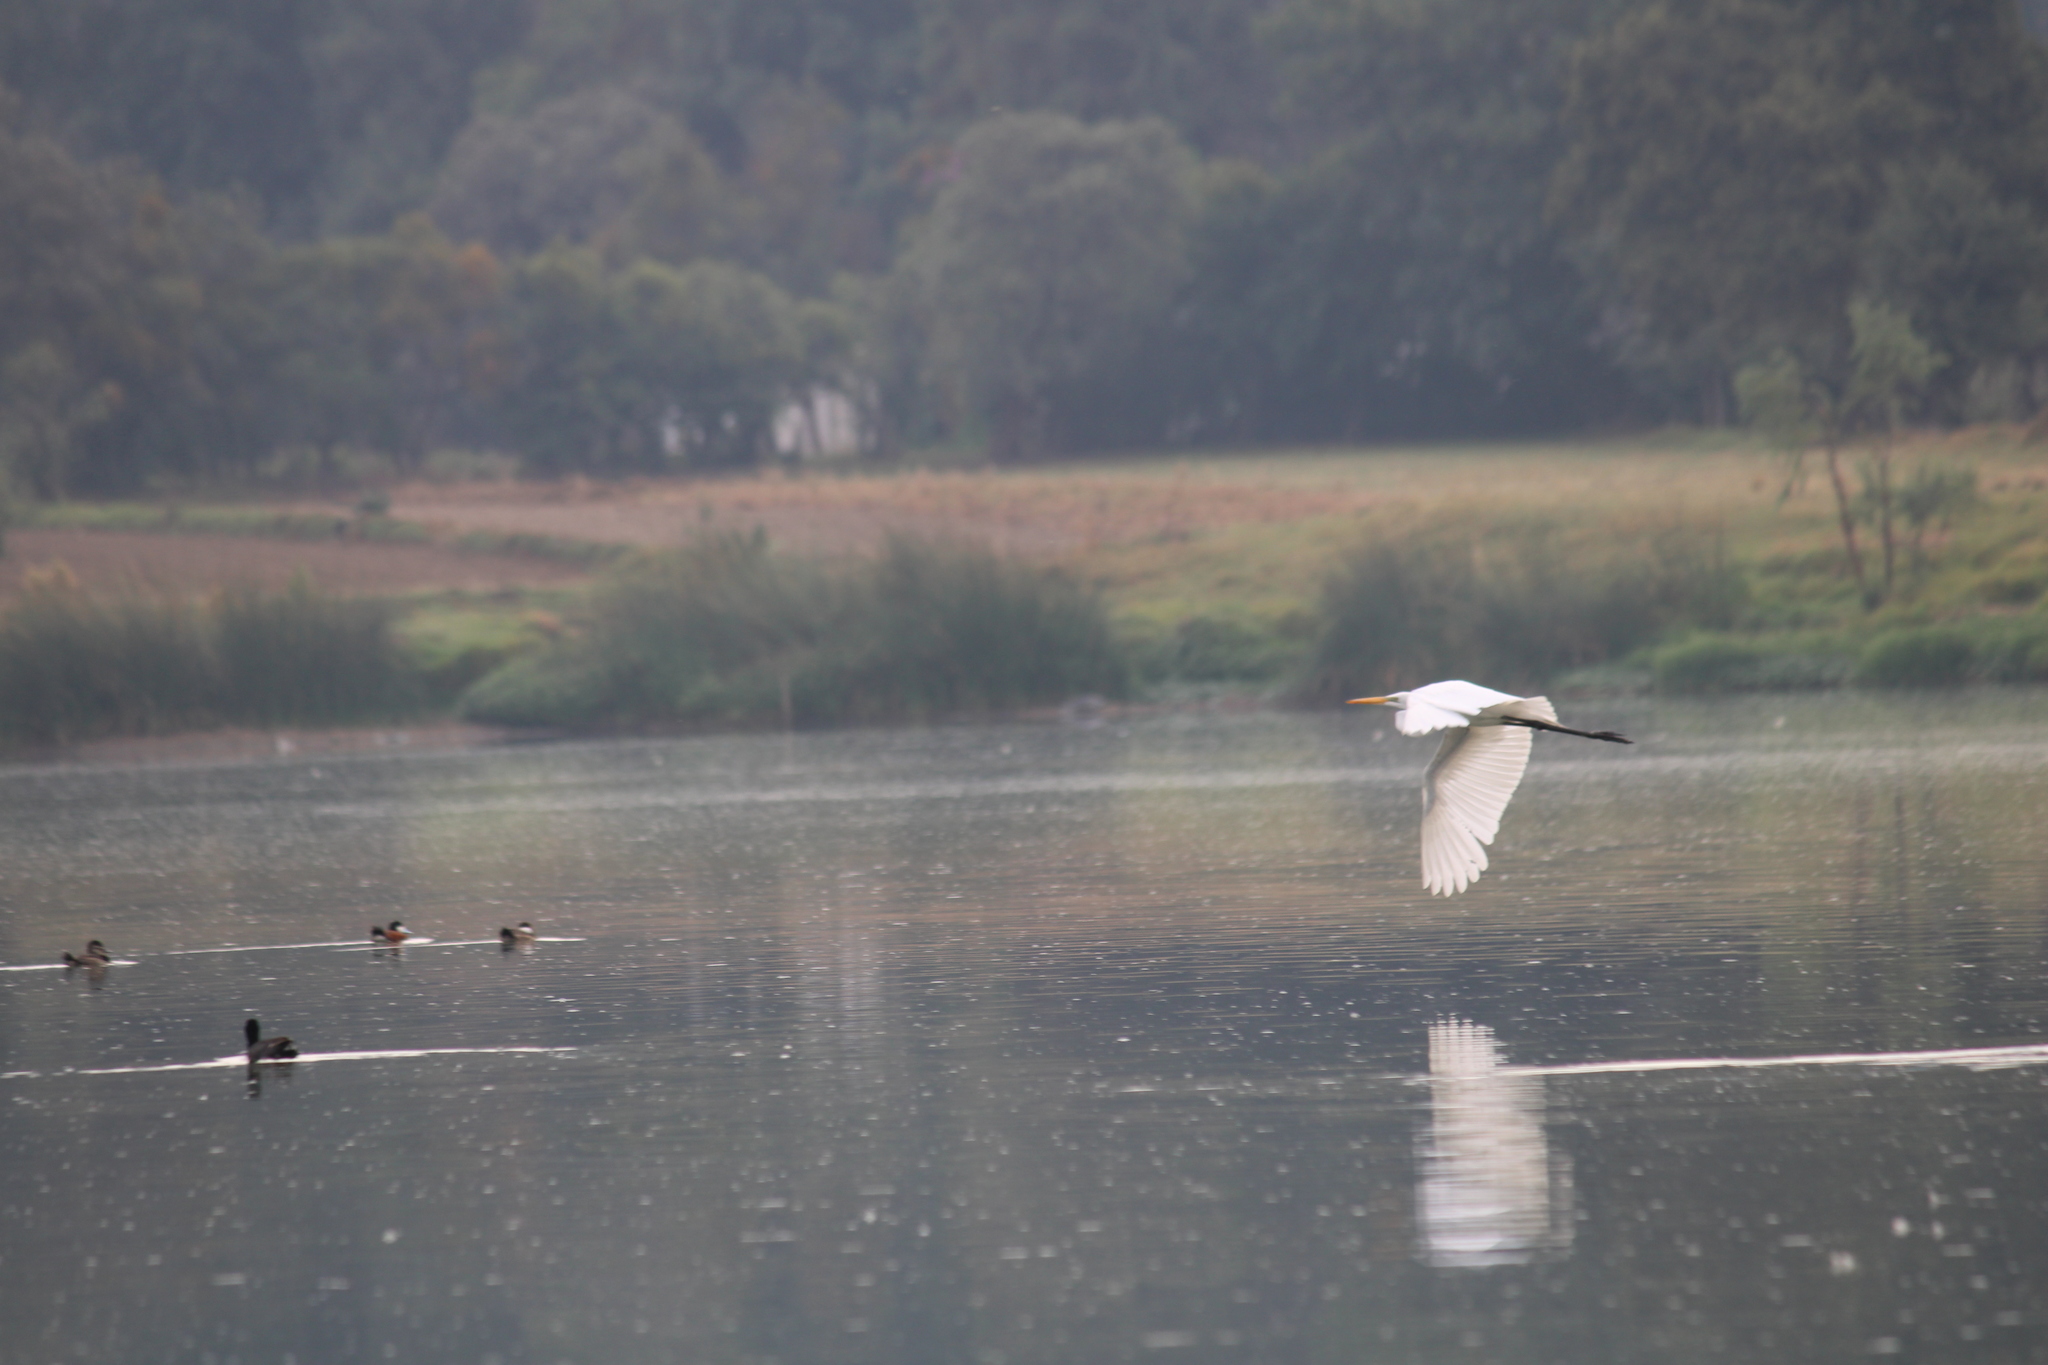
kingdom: Animalia
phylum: Chordata
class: Aves
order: Pelecaniformes
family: Ardeidae
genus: Ardea
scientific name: Ardea alba
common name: Great egret
